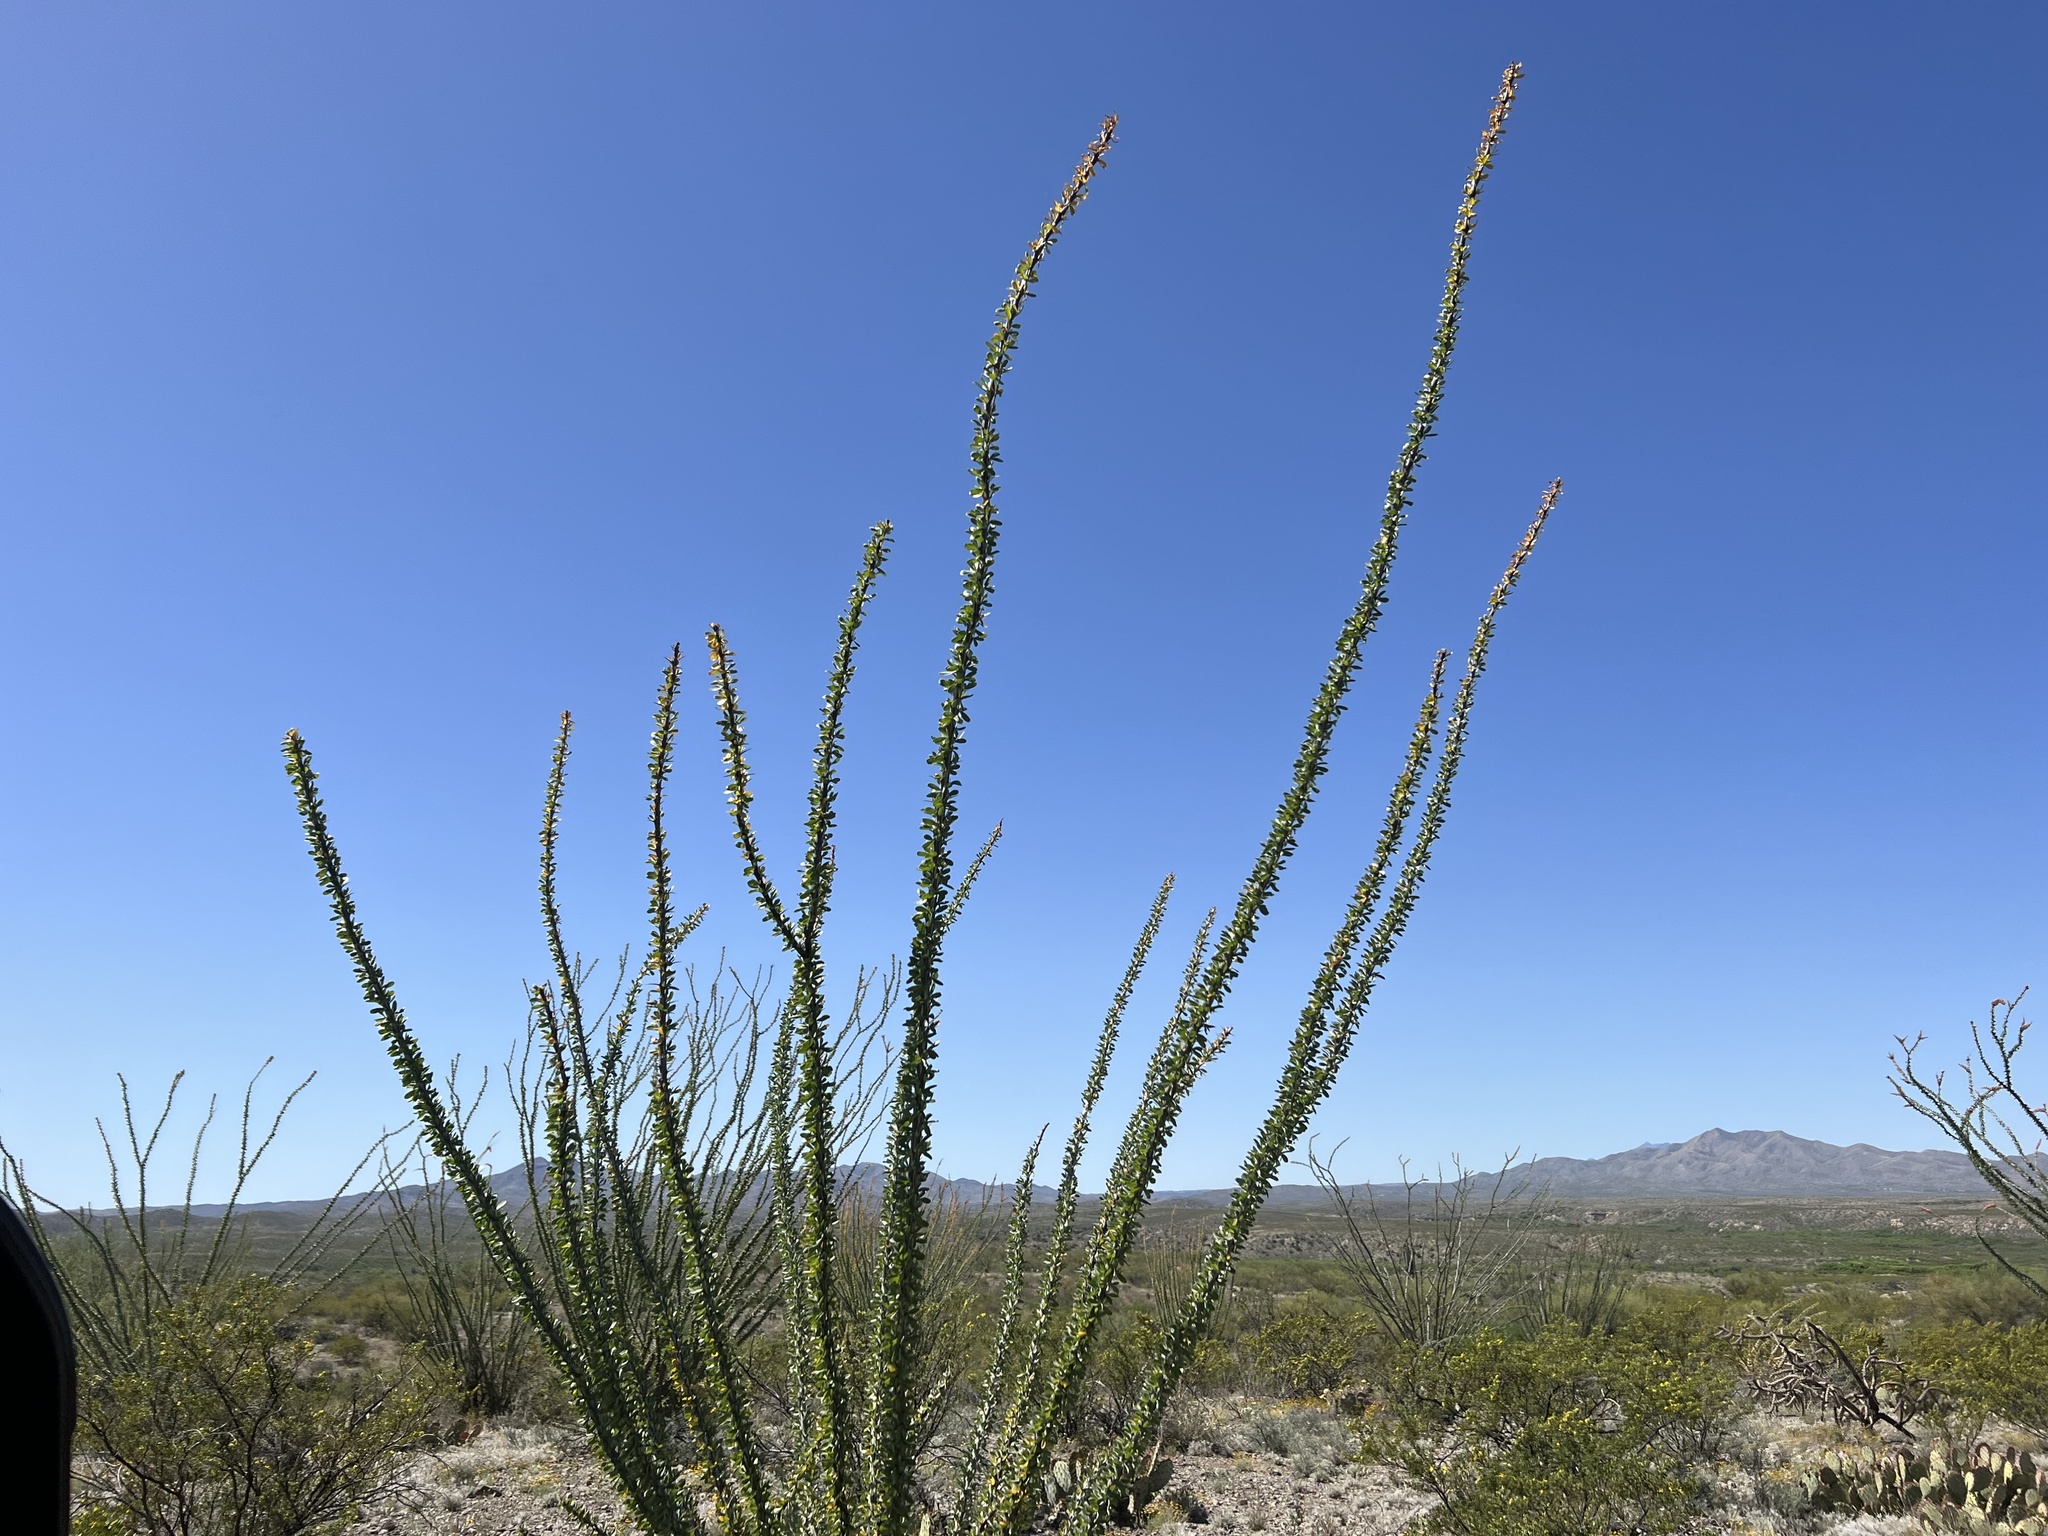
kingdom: Plantae
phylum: Tracheophyta
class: Magnoliopsida
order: Ericales
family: Fouquieriaceae
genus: Fouquieria
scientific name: Fouquieria splendens
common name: Vine-cactus
